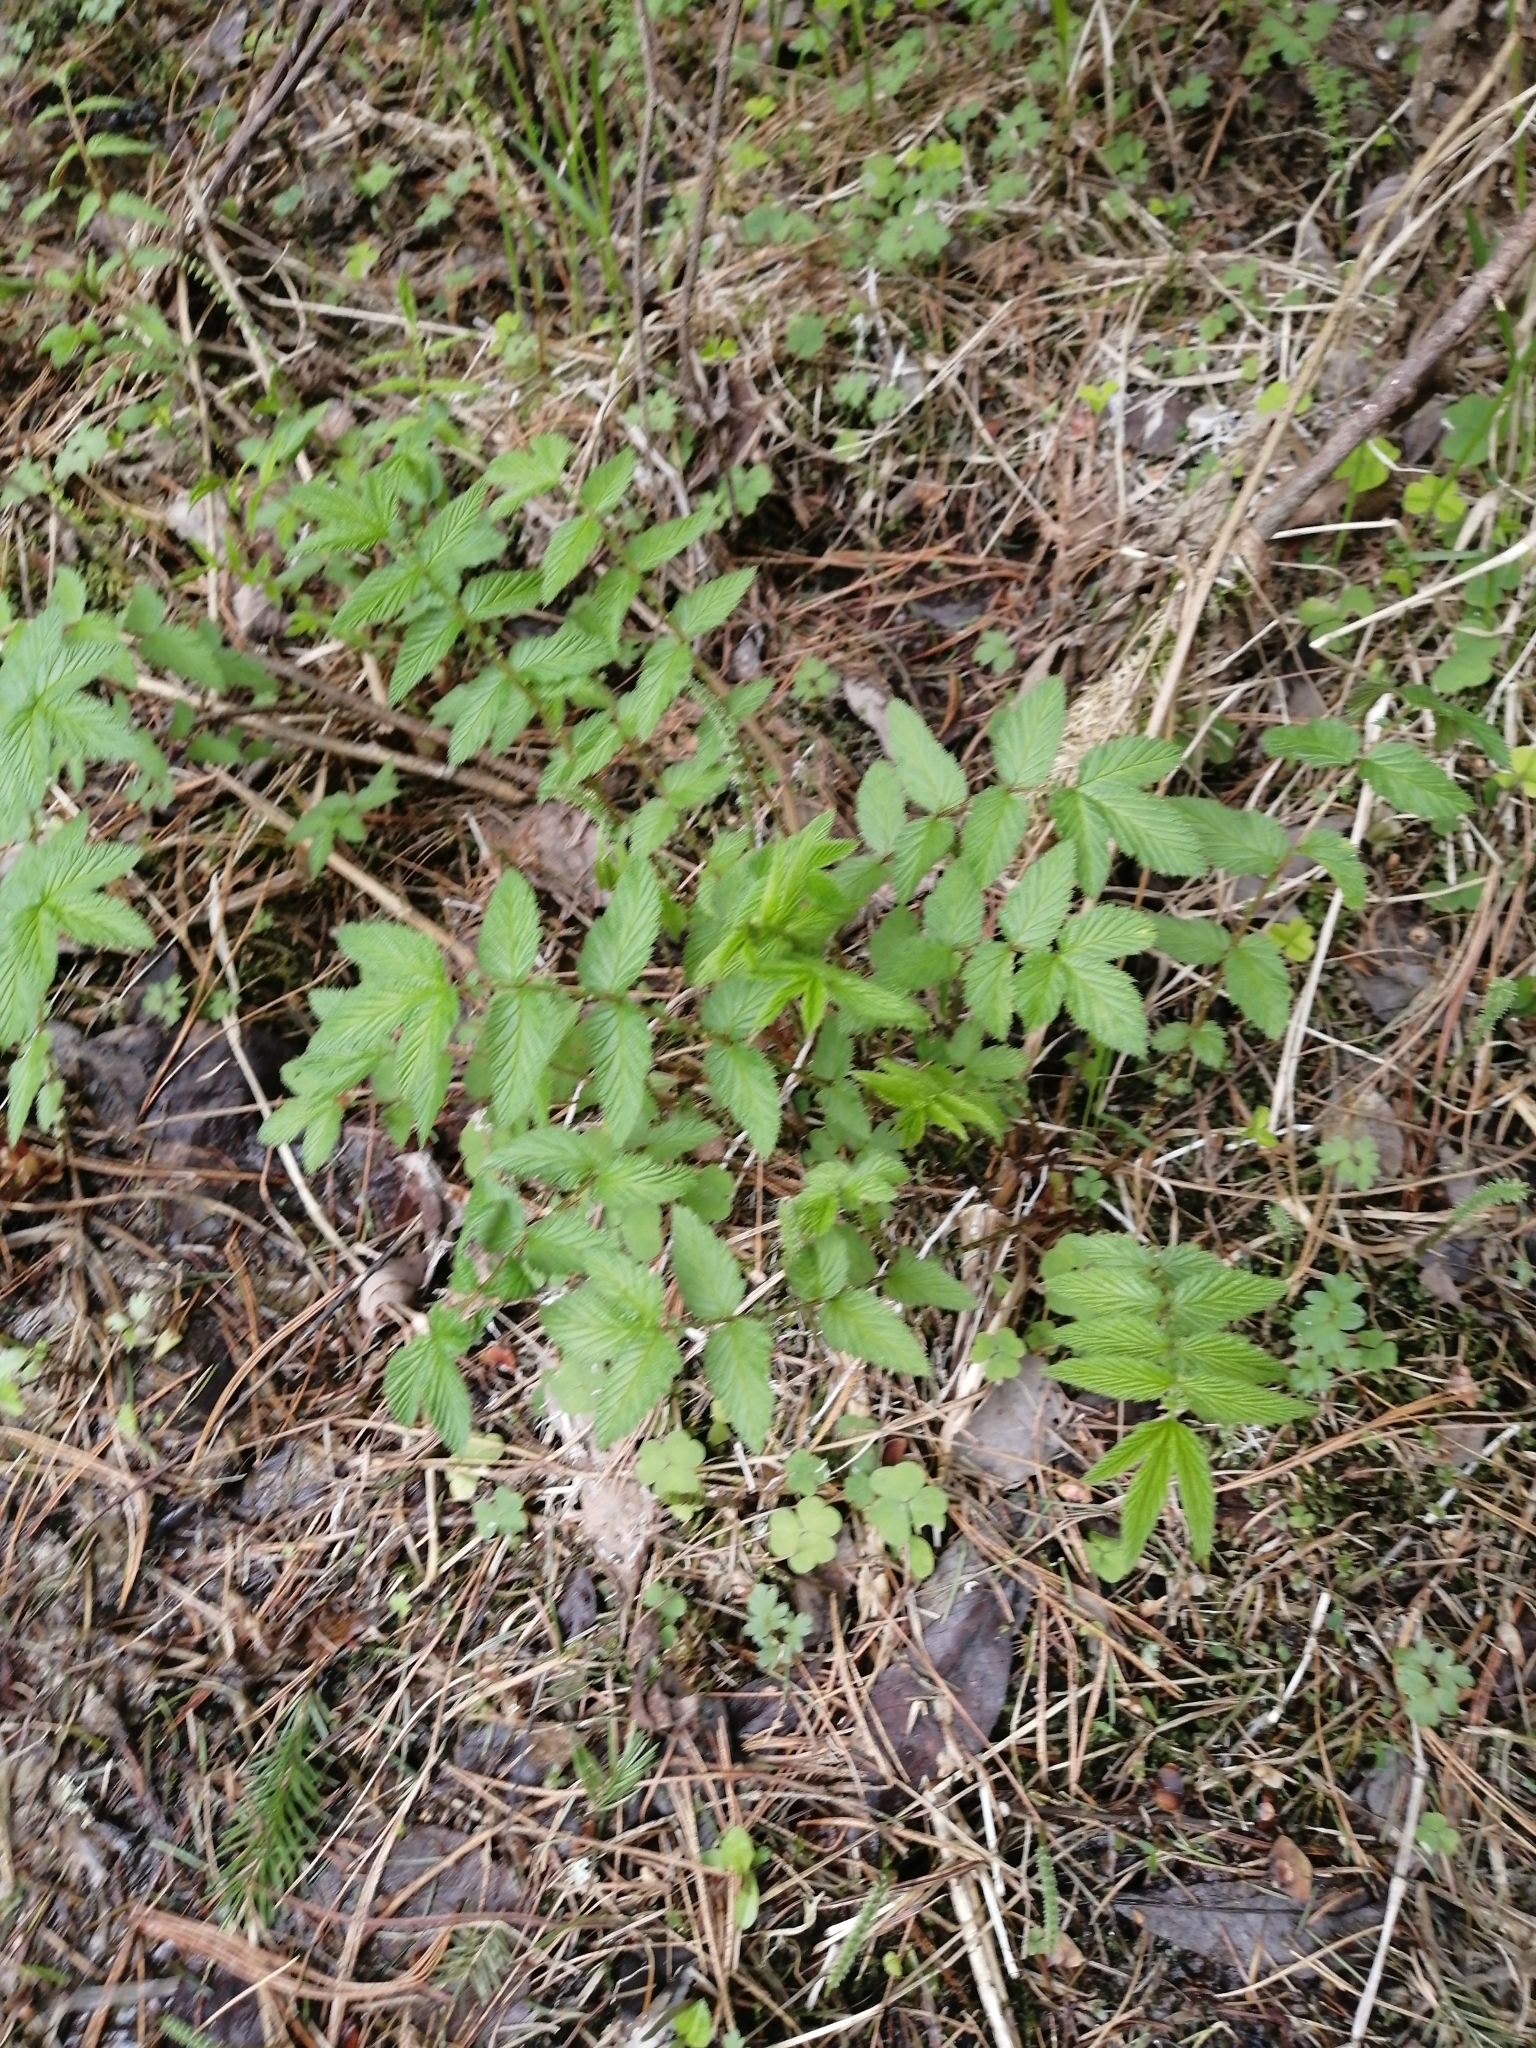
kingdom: Plantae
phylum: Tracheophyta
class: Magnoliopsida
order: Rosales
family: Rosaceae
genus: Filipendula
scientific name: Filipendula ulmaria
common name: Meadowsweet
